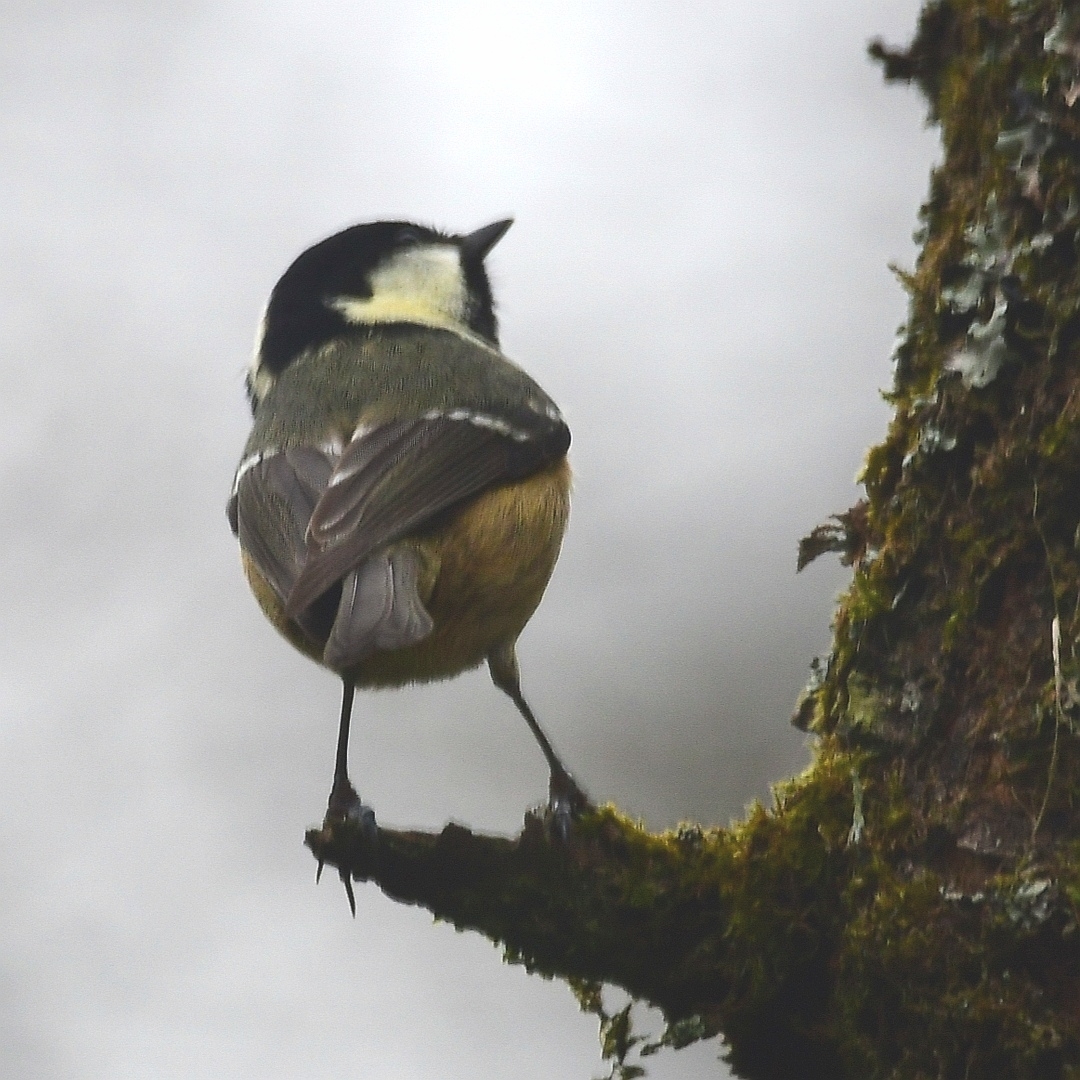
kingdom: Animalia
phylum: Chordata
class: Aves
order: Passeriformes
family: Paridae
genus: Periparus
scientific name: Periparus ater
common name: Coal tit
